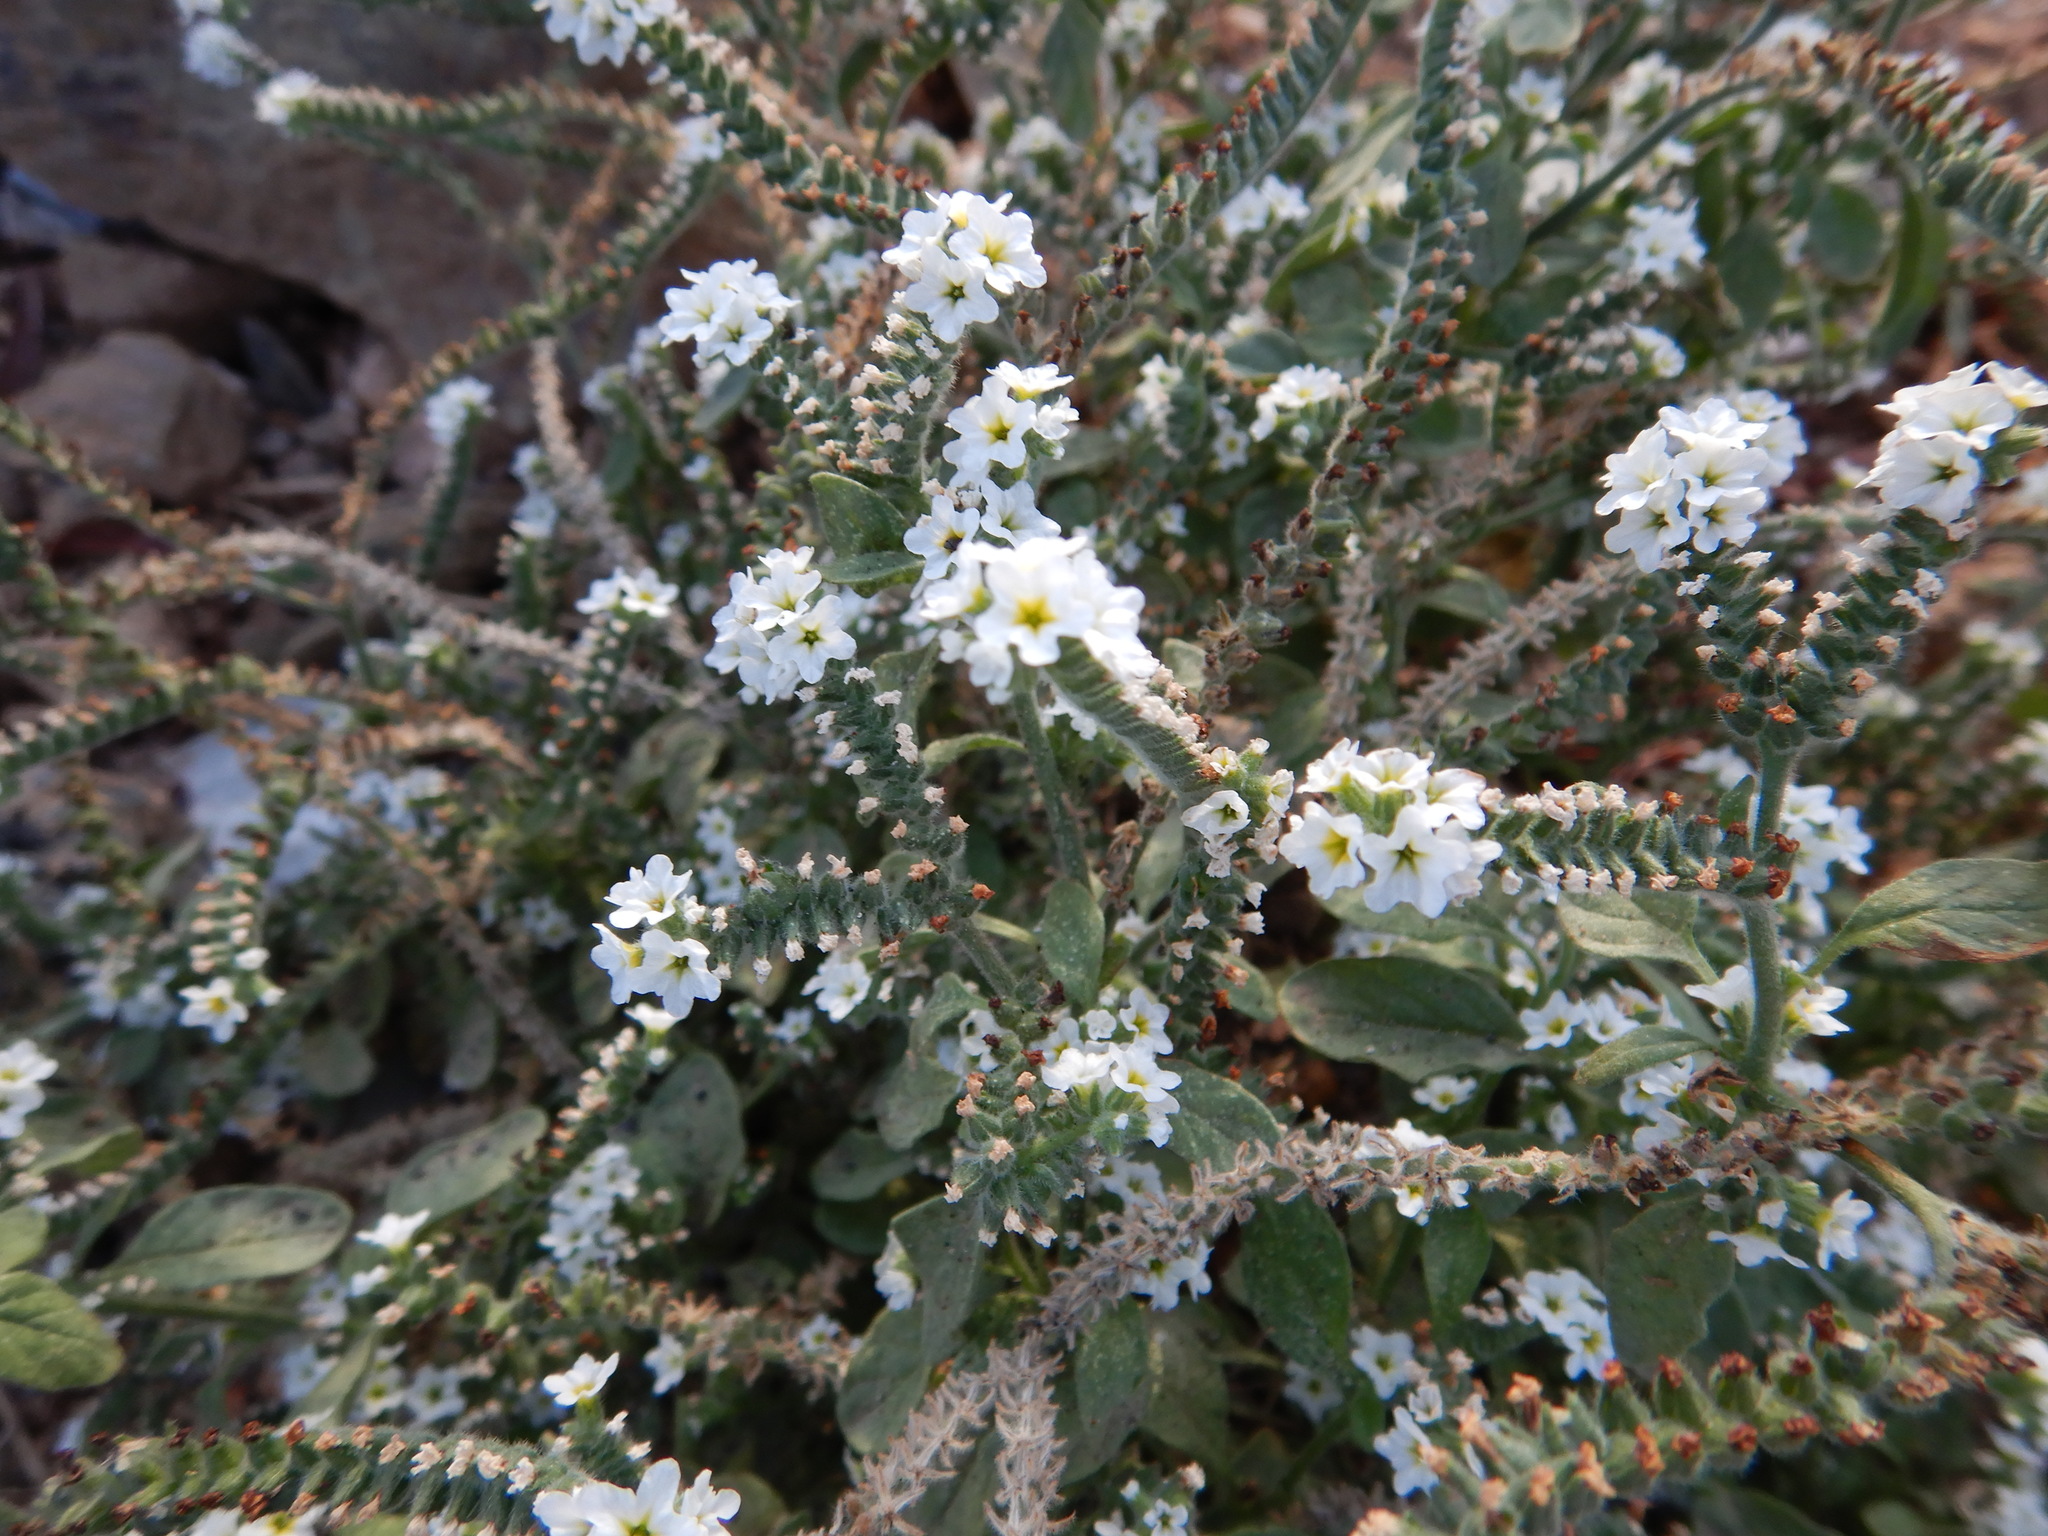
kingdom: Plantae
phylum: Tracheophyta
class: Magnoliopsida
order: Boraginales
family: Heliotropiaceae
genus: Heliotropium
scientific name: Heliotropium europaeum
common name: European heliotrope
